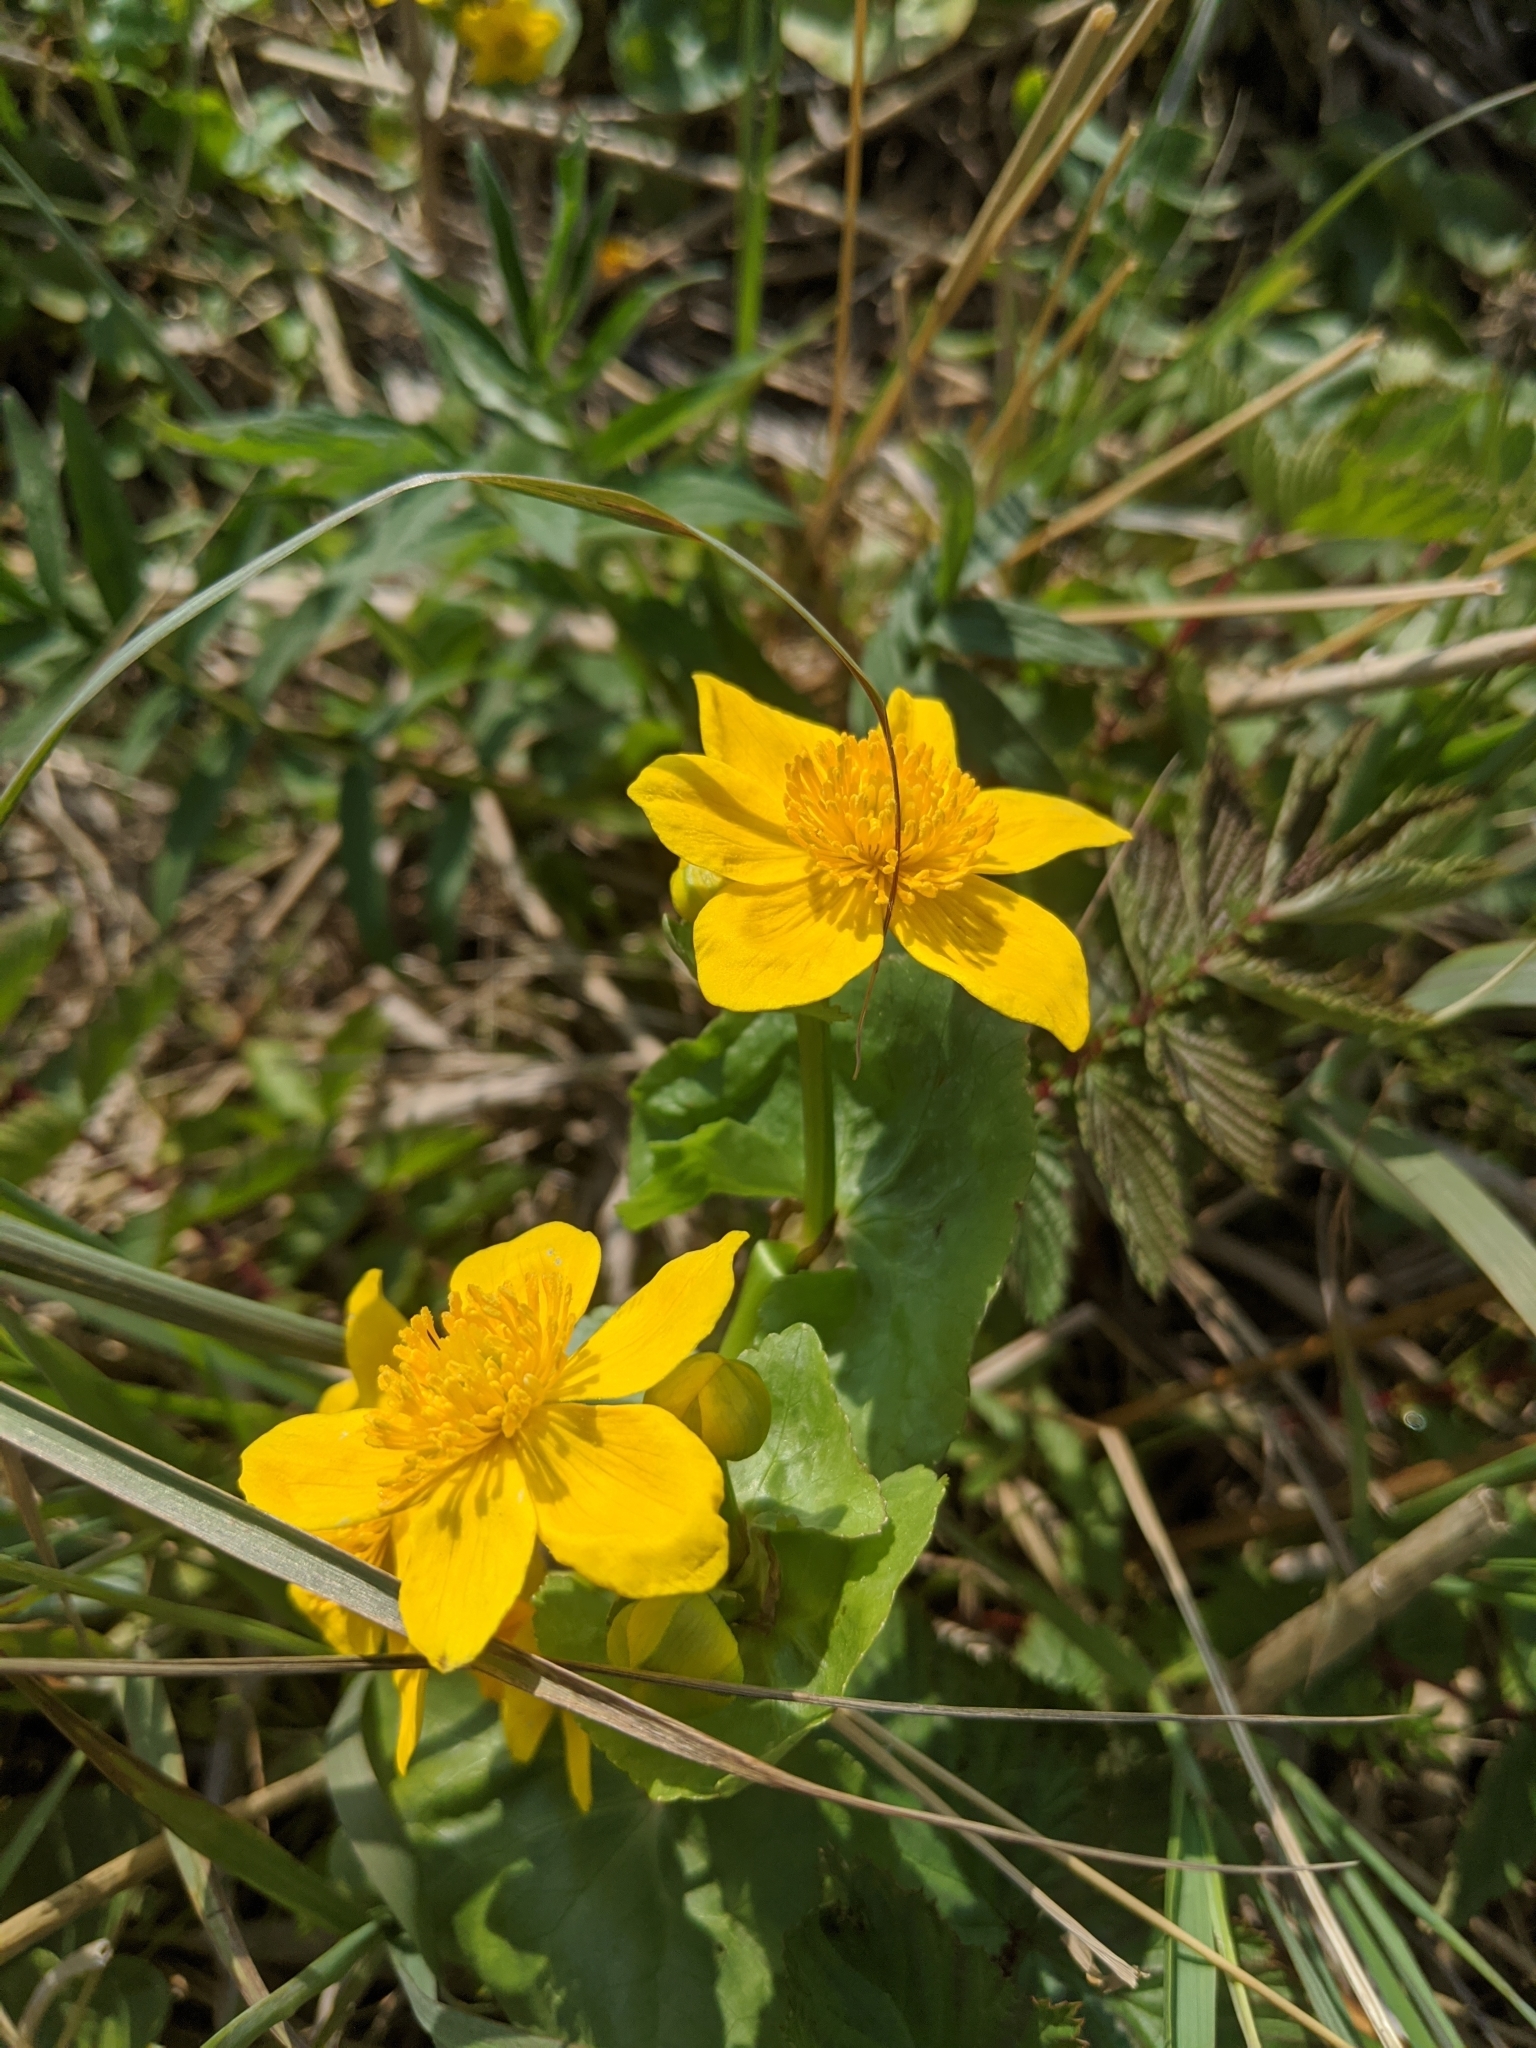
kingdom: Plantae
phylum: Tracheophyta
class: Magnoliopsida
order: Ranunculales
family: Ranunculaceae
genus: Caltha
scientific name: Caltha palustris
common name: Marsh marigold
